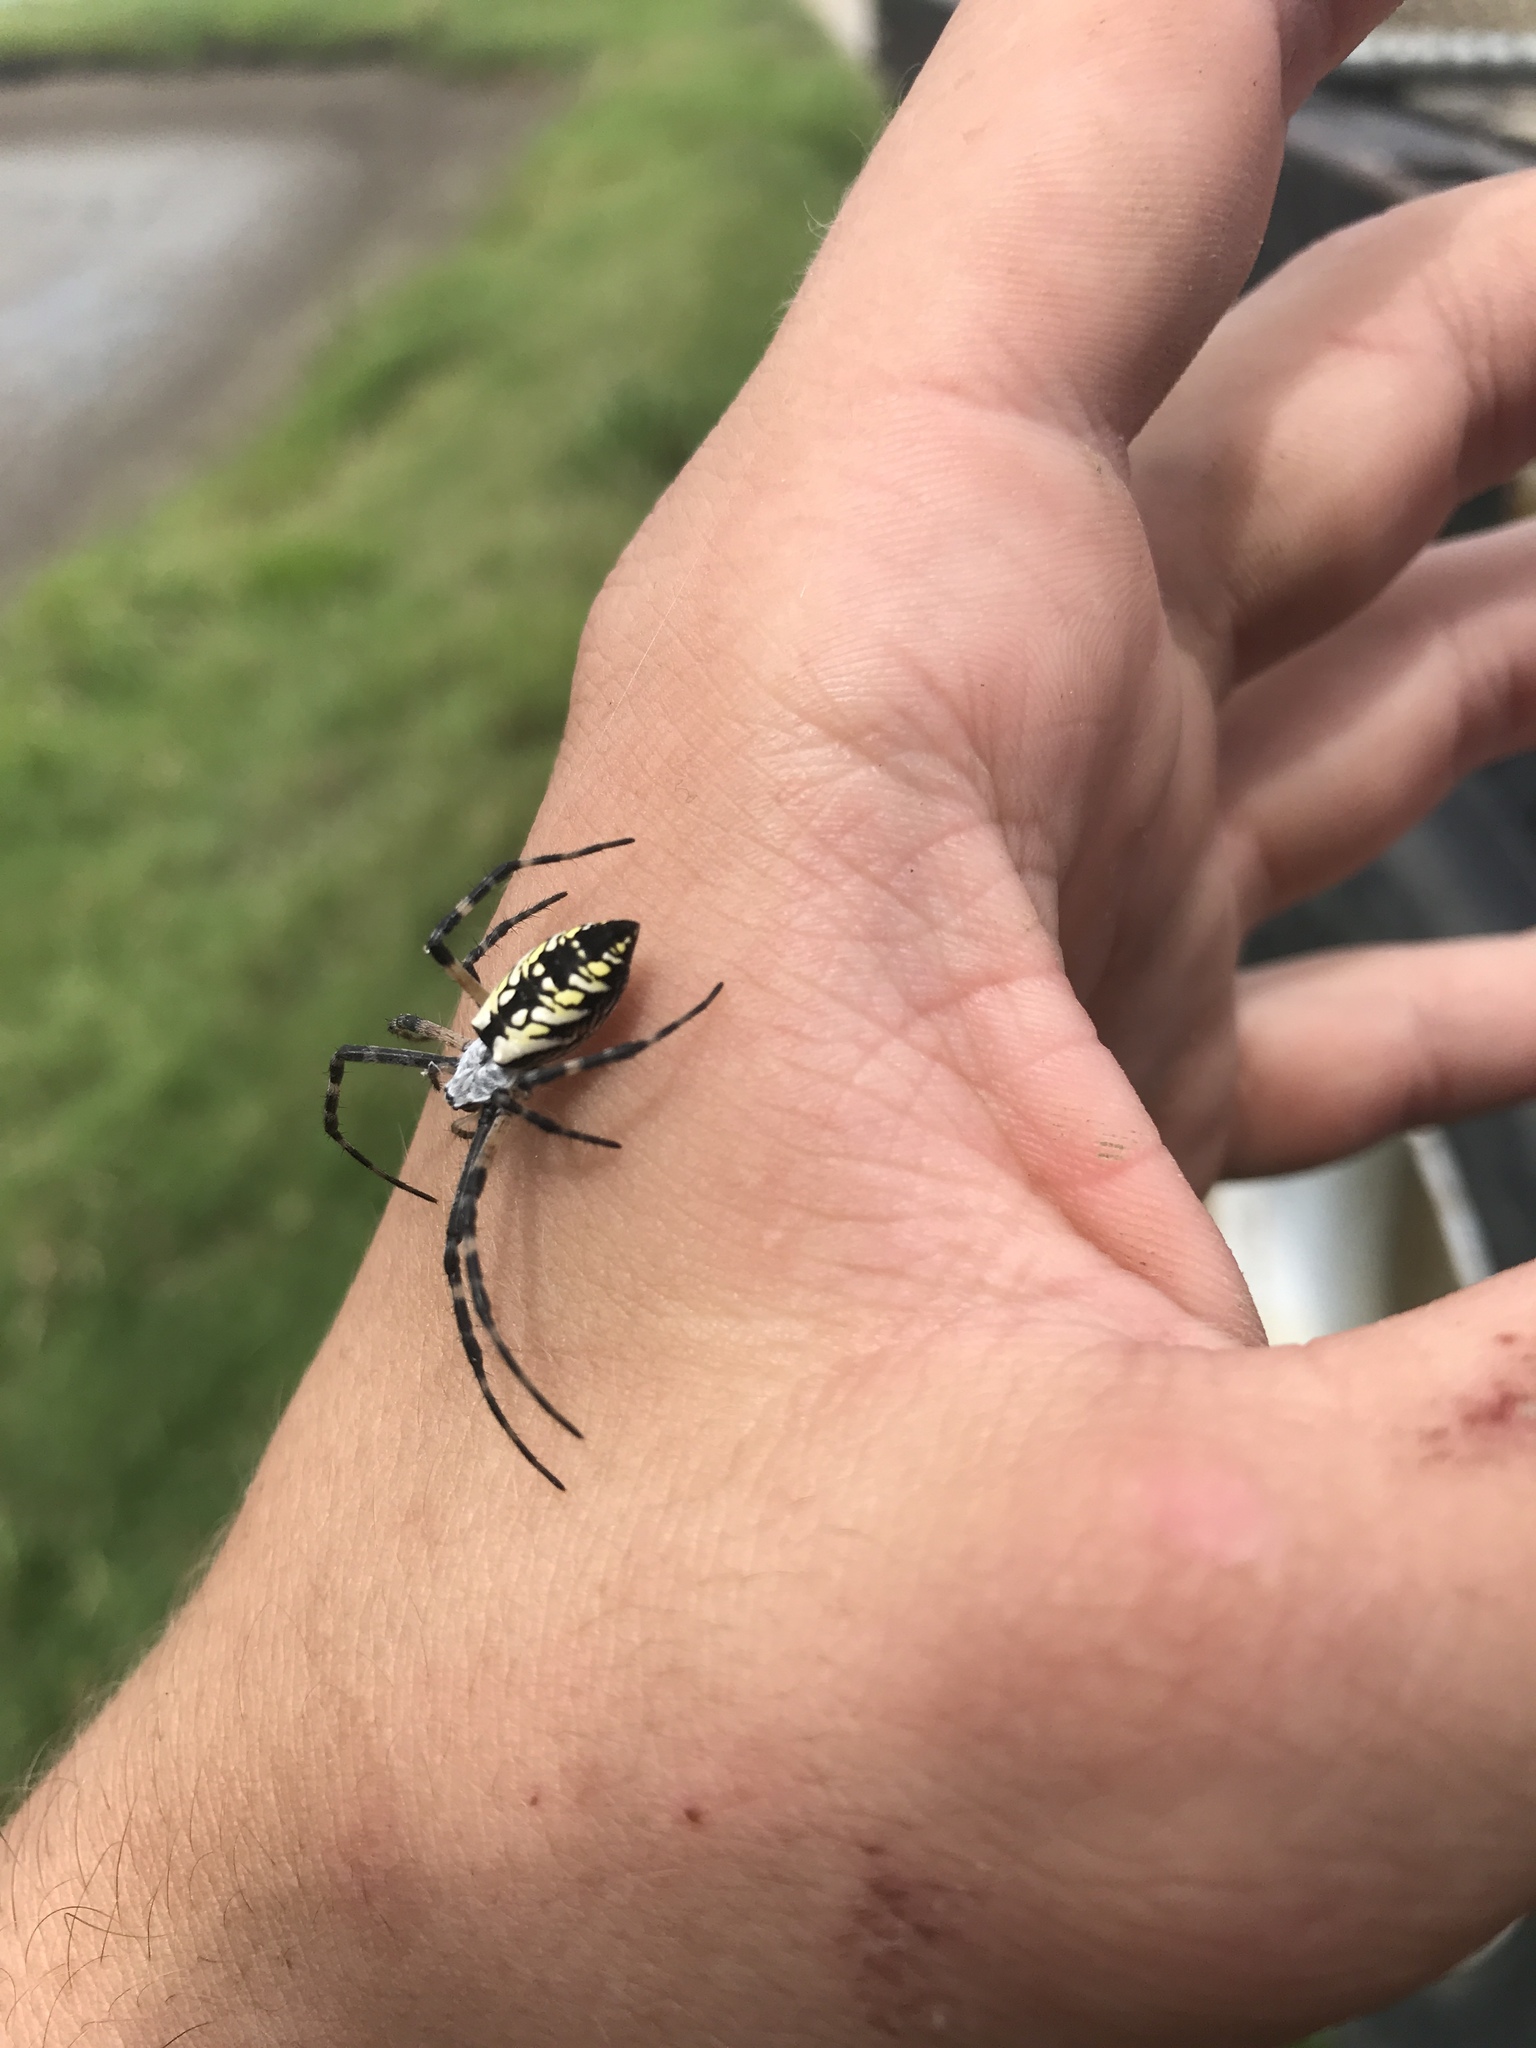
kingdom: Animalia
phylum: Arthropoda
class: Arachnida
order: Araneae
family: Araneidae
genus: Argiope
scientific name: Argiope aurantia
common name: Orb weavers
